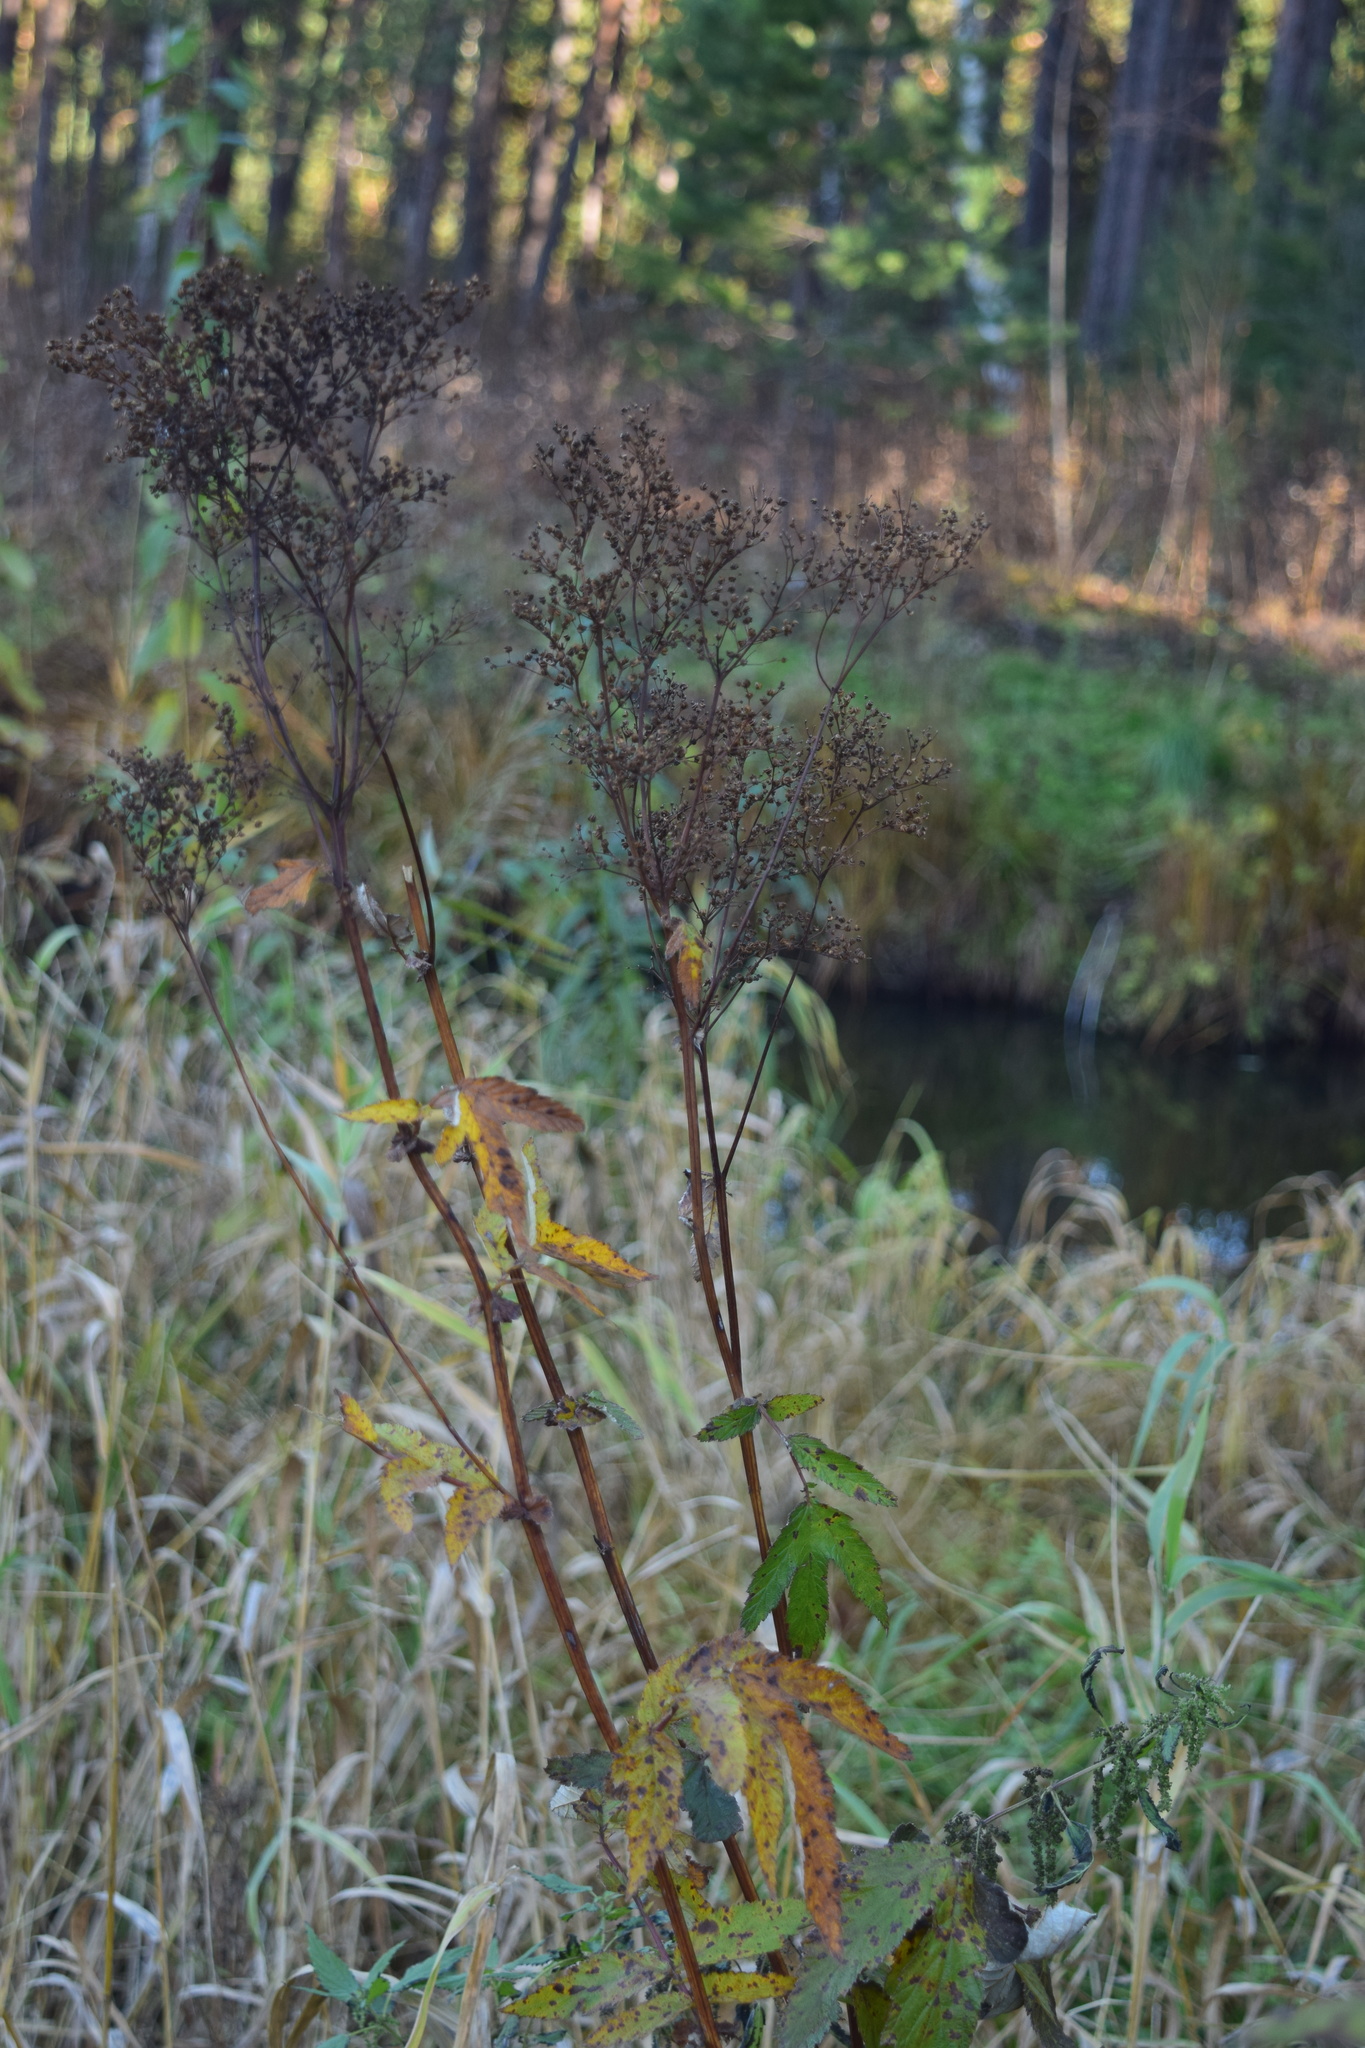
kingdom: Plantae
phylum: Tracheophyta
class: Magnoliopsida
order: Rosales
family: Rosaceae
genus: Filipendula
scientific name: Filipendula ulmaria
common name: Meadowsweet
